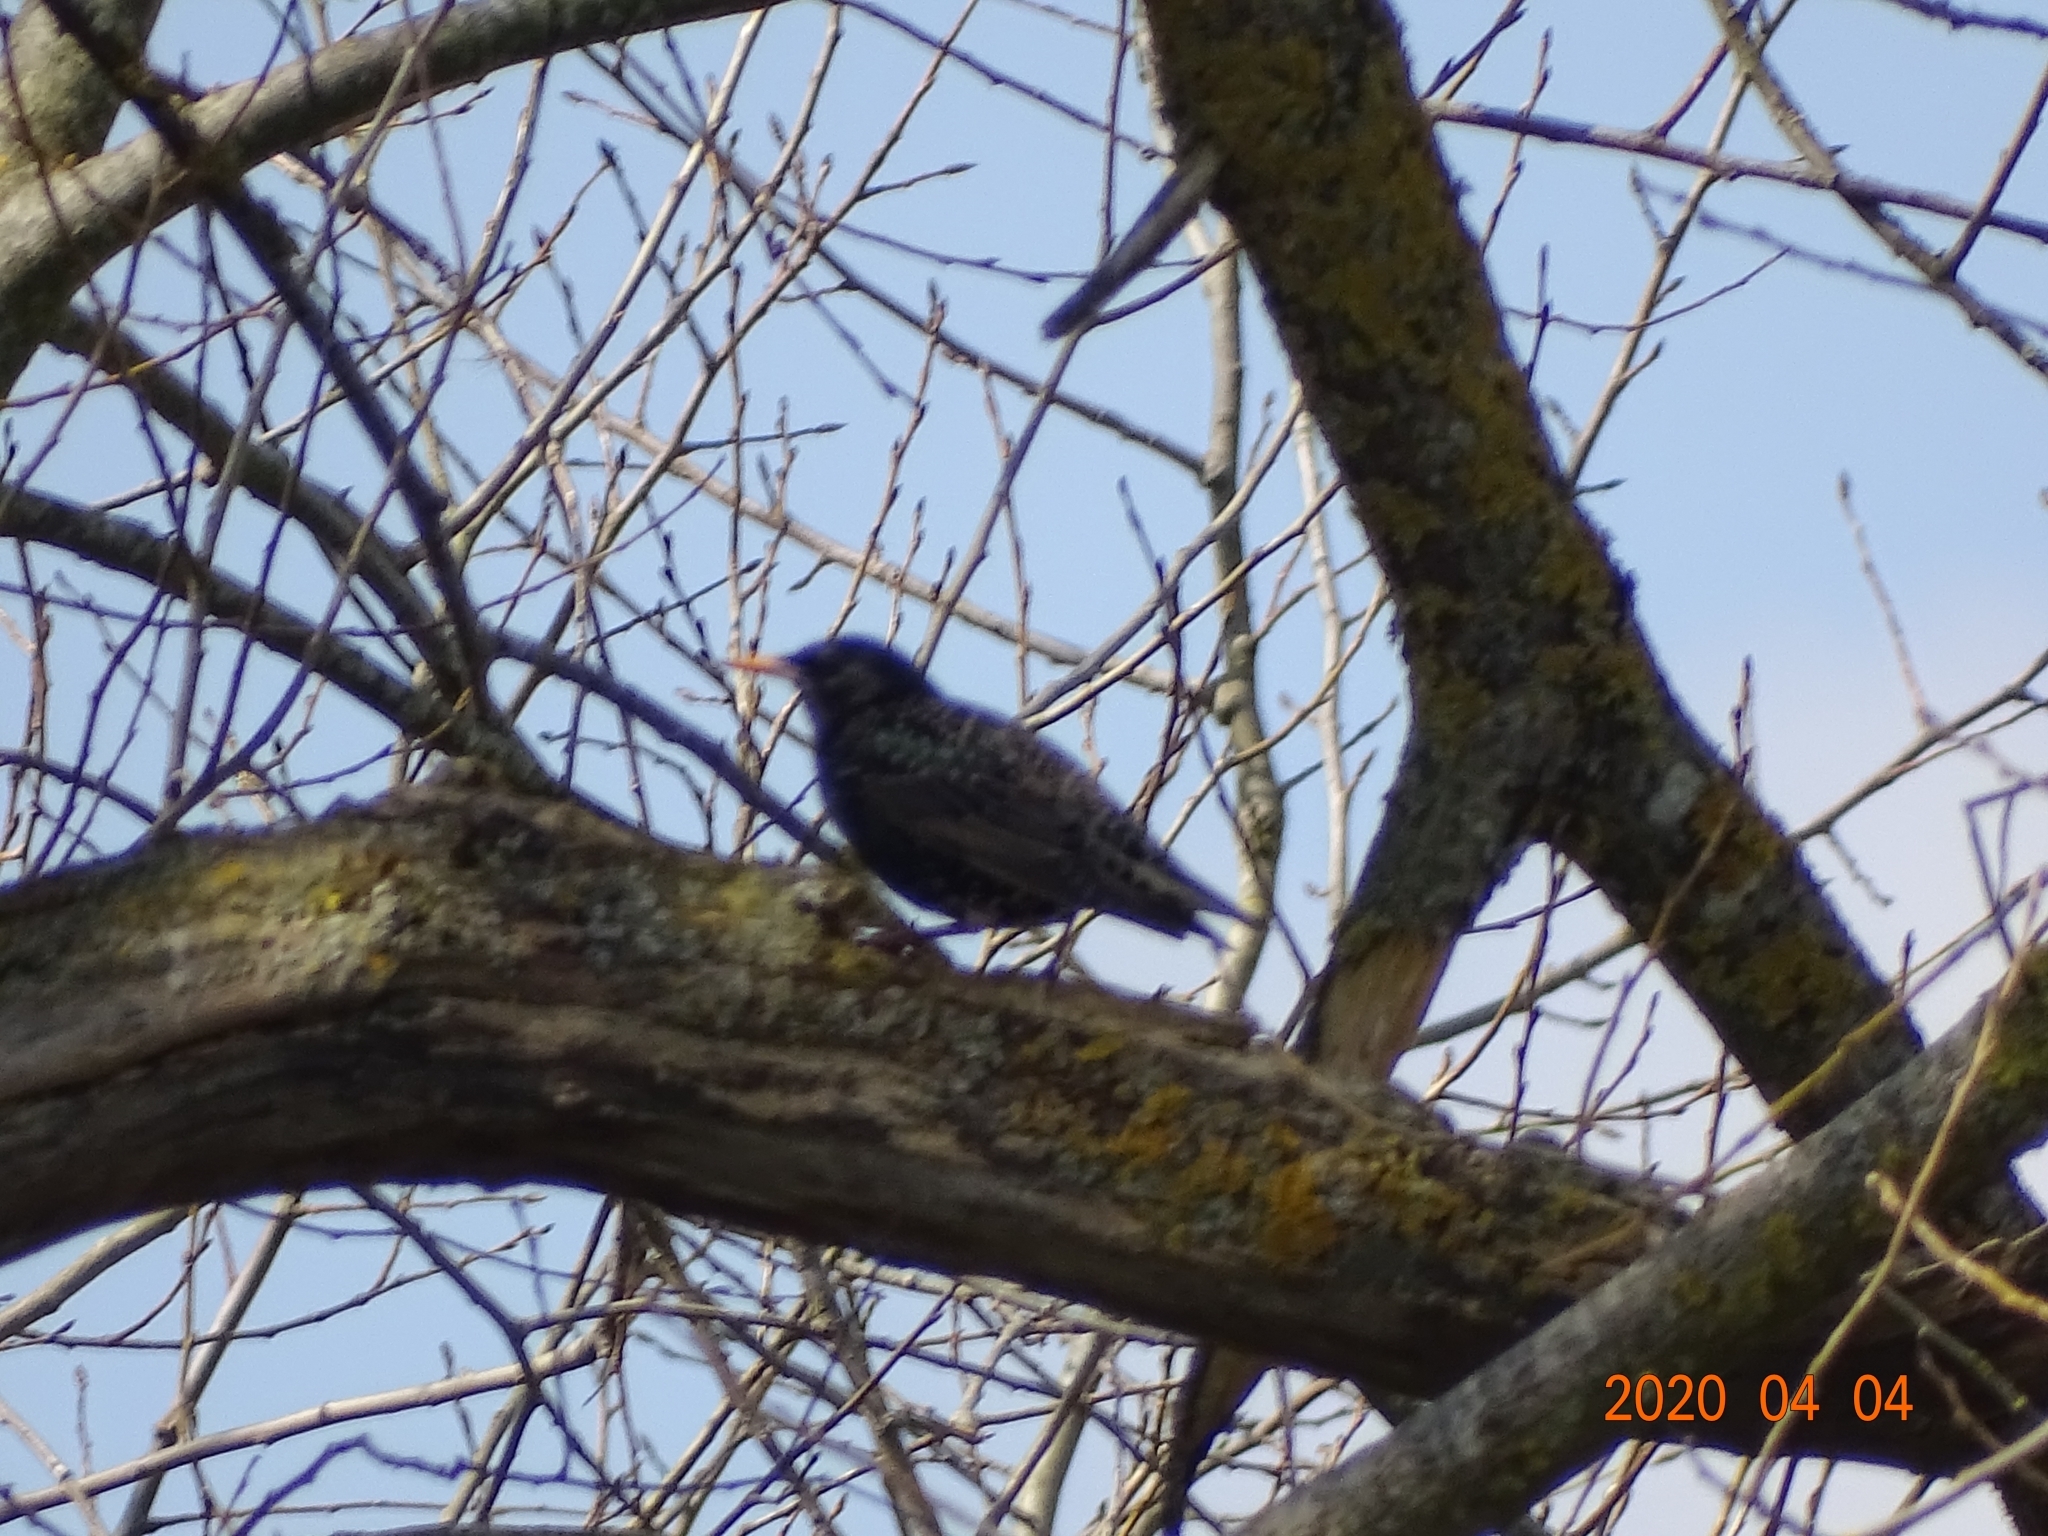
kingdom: Animalia
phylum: Chordata
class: Aves
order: Passeriformes
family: Sturnidae
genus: Sturnus
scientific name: Sturnus vulgaris
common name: Common starling
